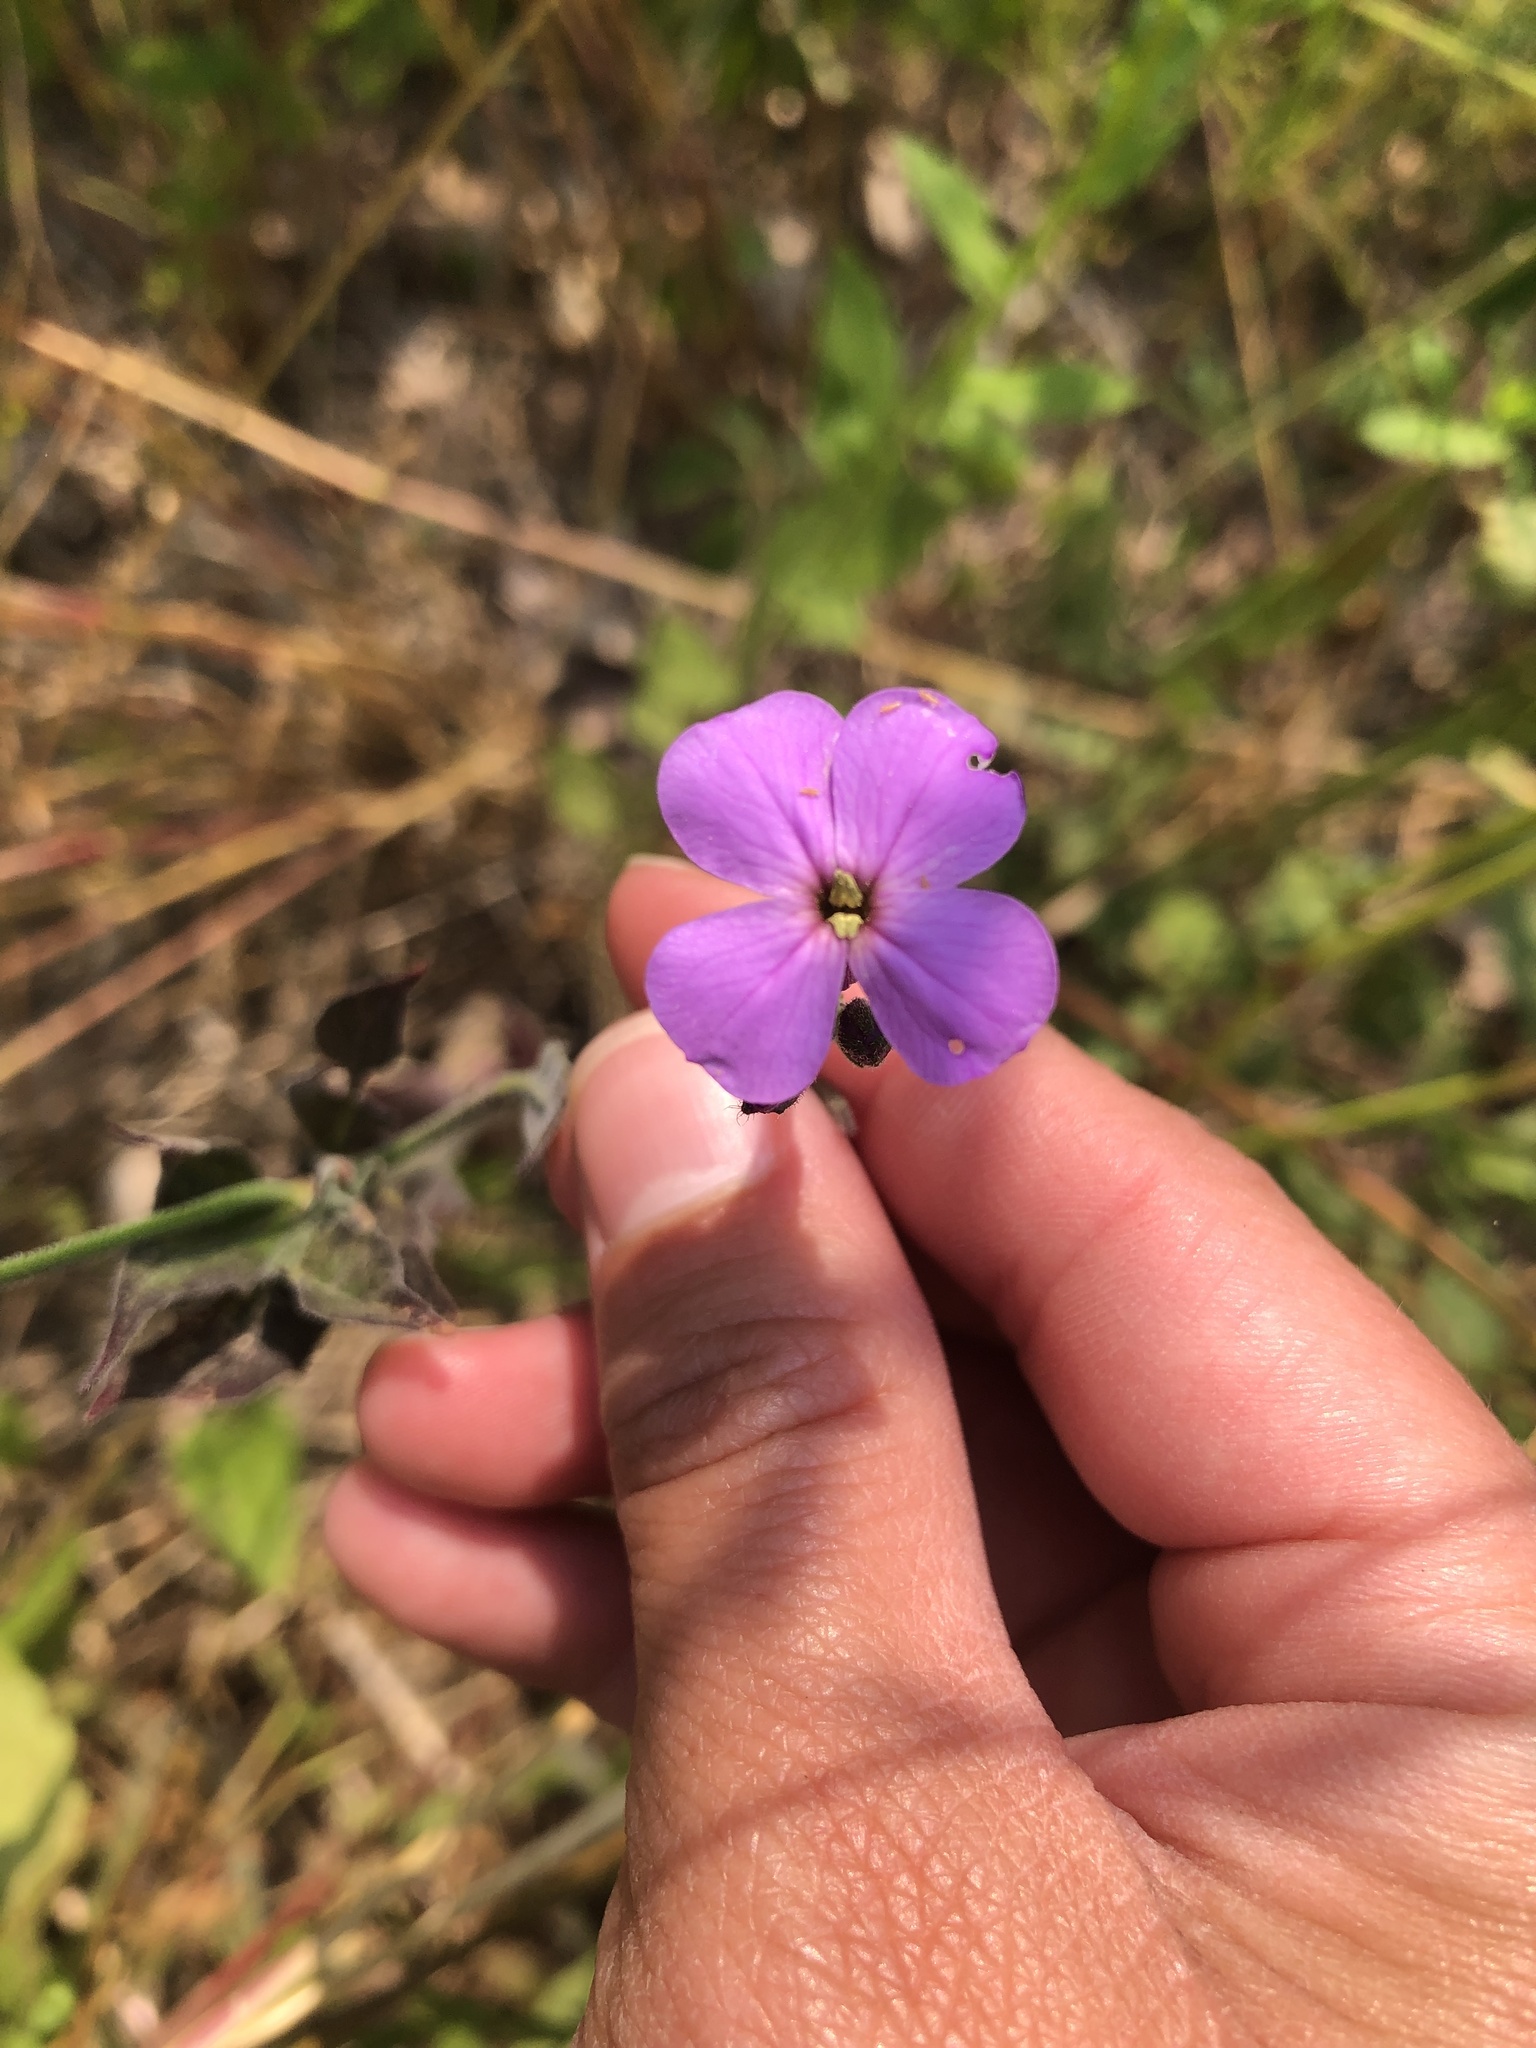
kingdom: Plantae
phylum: Tracheophyta
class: Magnoliopsida
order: Brassicales
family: Brassicaceae
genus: Hesperis
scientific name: Hesperis matronalis
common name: Dame's-violet
